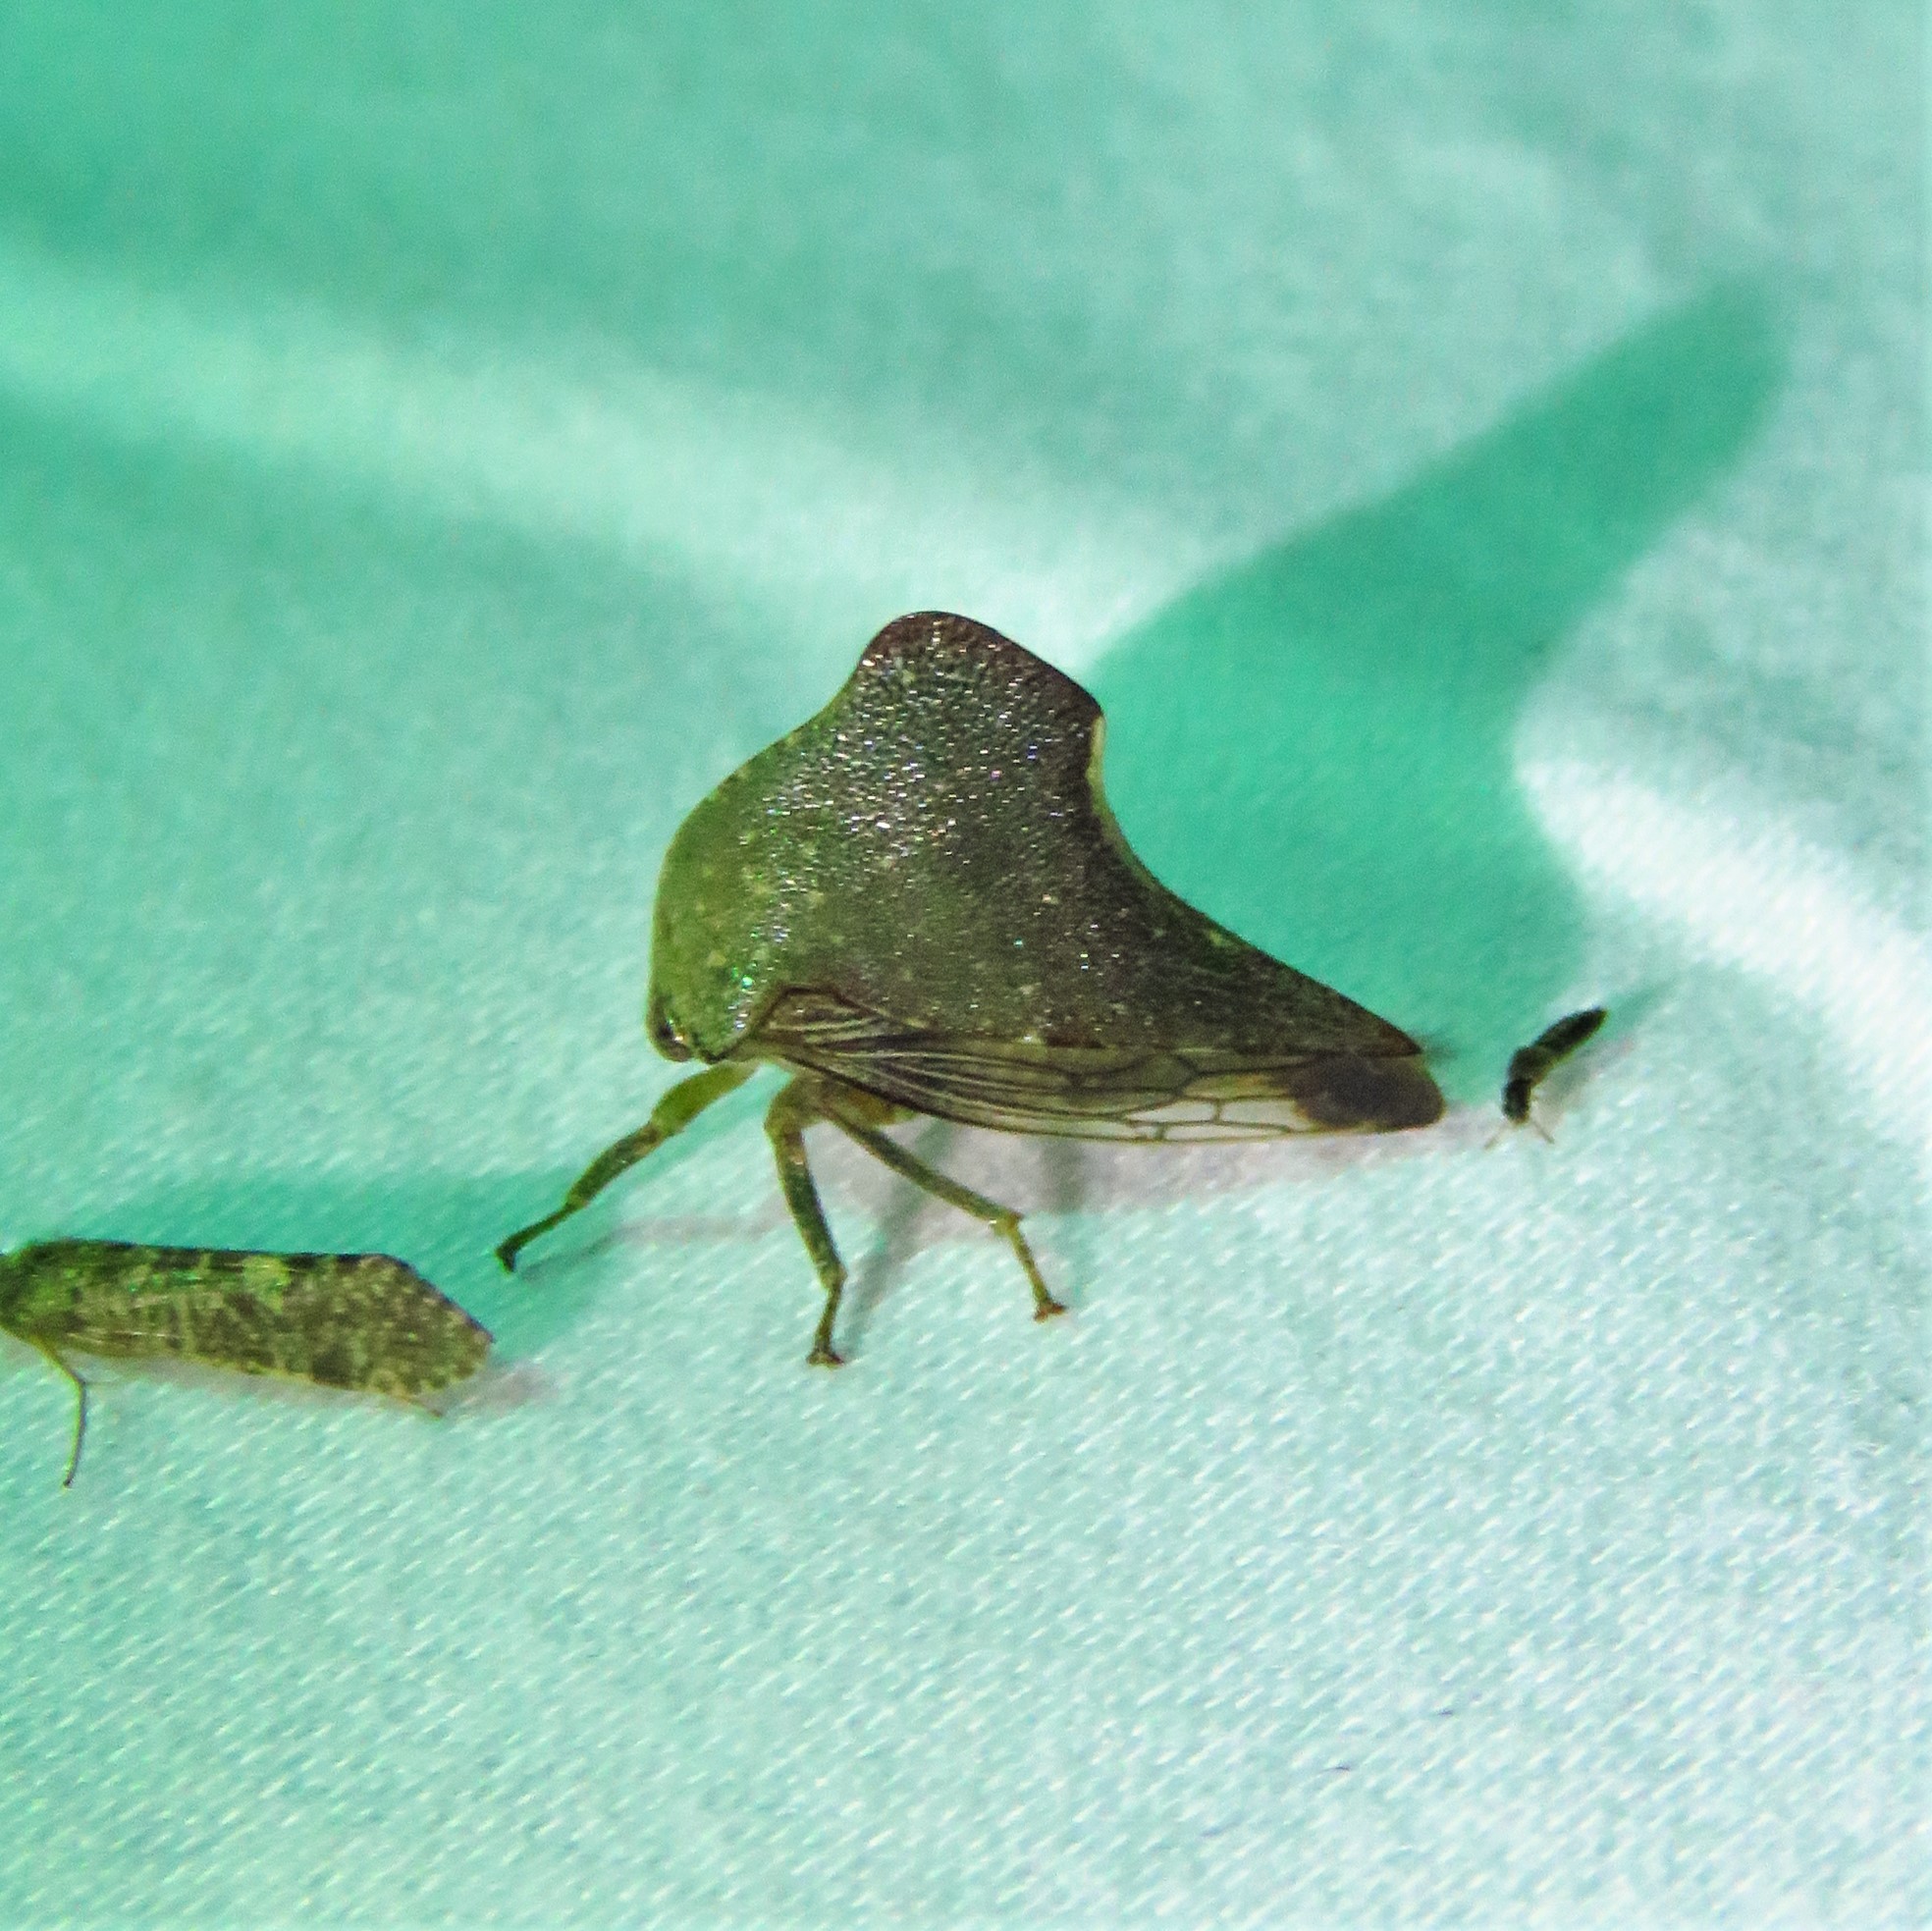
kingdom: Animalia
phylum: Arthropoda
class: Insecta
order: Hemiptera
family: Membracidae
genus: Telamona
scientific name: Telamona monticola
